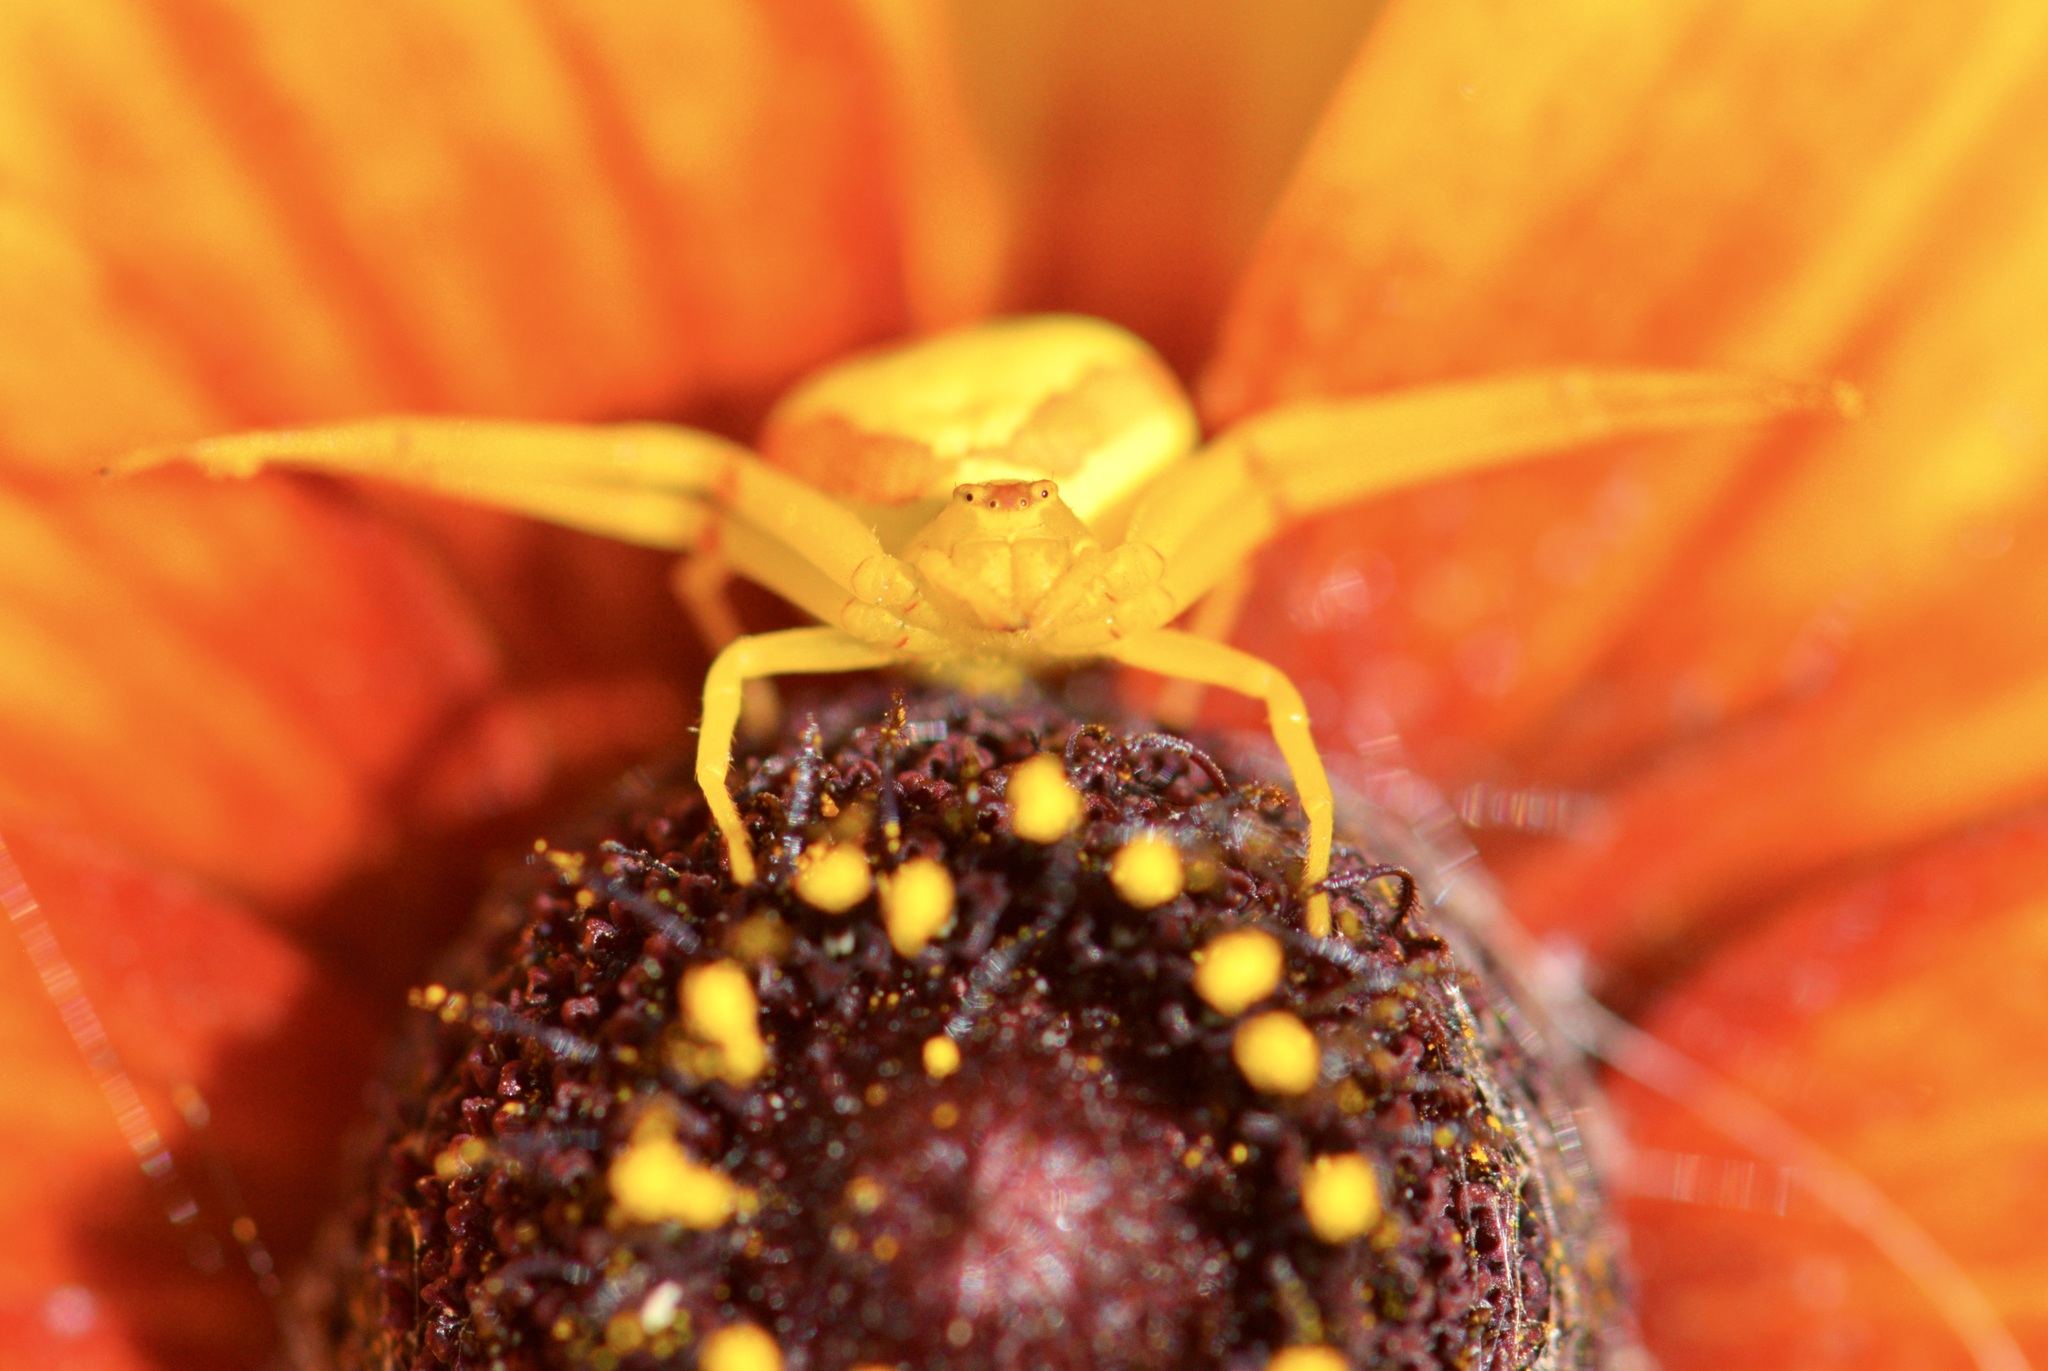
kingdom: Animalia
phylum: Arthropoda
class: Arachnida
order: Araneae
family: Thomisidae
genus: Misumena
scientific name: Misumena vatia
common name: Goldenrod crab spider
